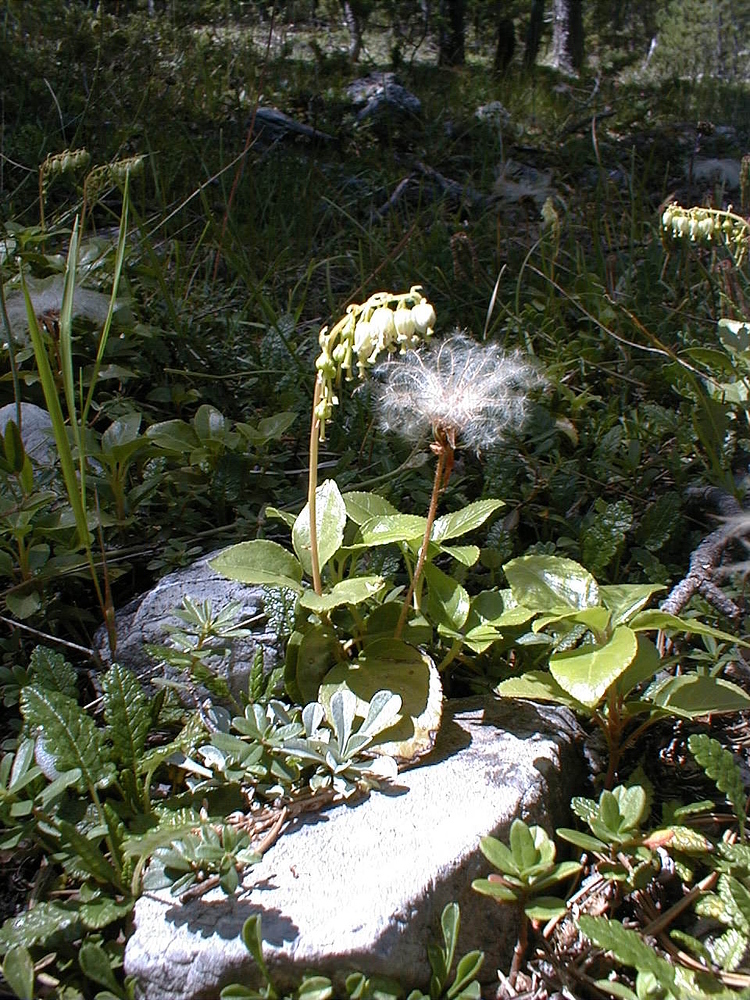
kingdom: Plantae
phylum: Tracheophyta
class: Magnoliopsida
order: Ericales
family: Ericaceae
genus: Orthilia
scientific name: Orthilia secunda
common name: One-sided orthilia
